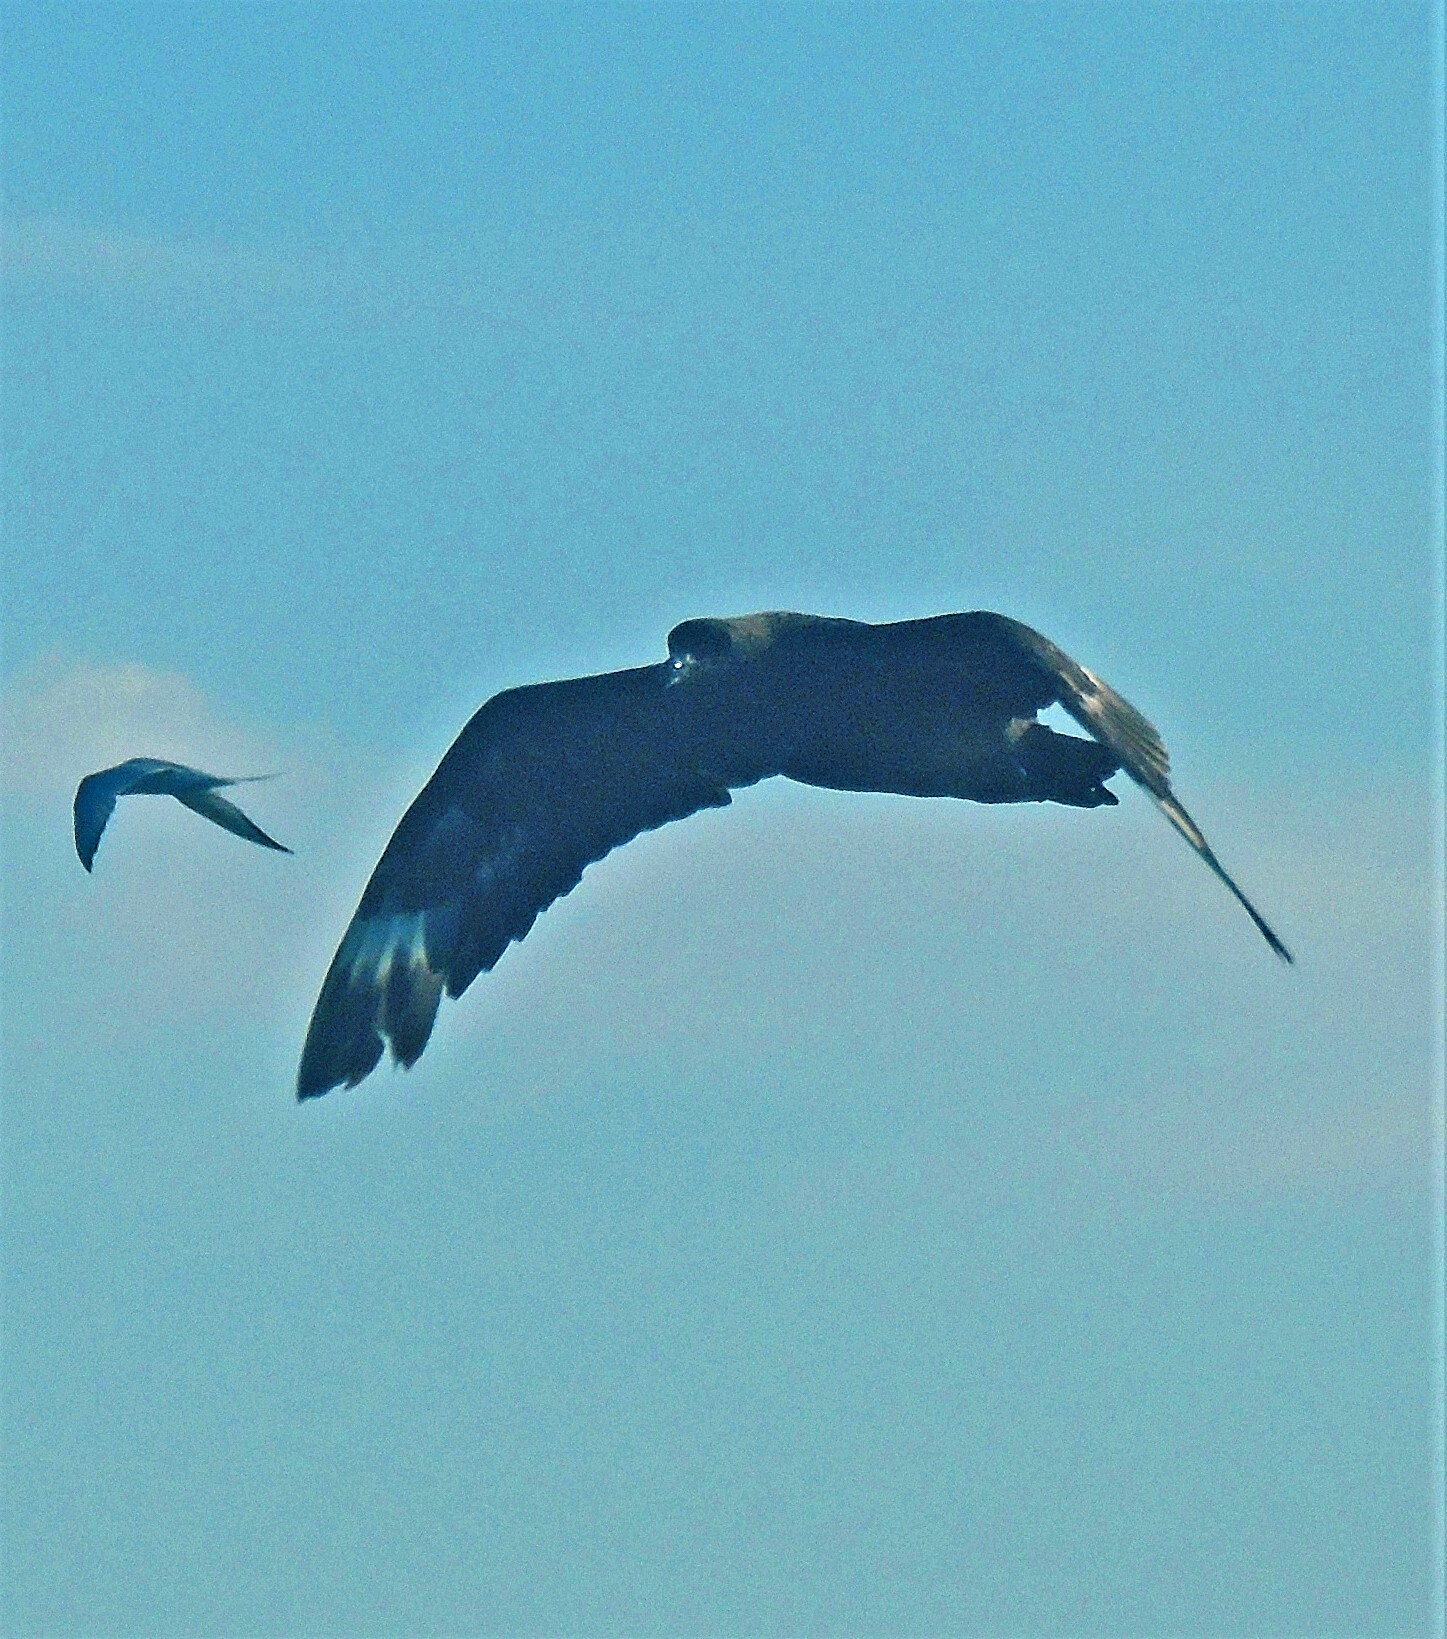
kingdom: Animalia
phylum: Chordata
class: Aves
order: Charadriiformes
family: Stercorariidae
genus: Stercorarius
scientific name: Stercorarius antarcticus
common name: Brown skua
